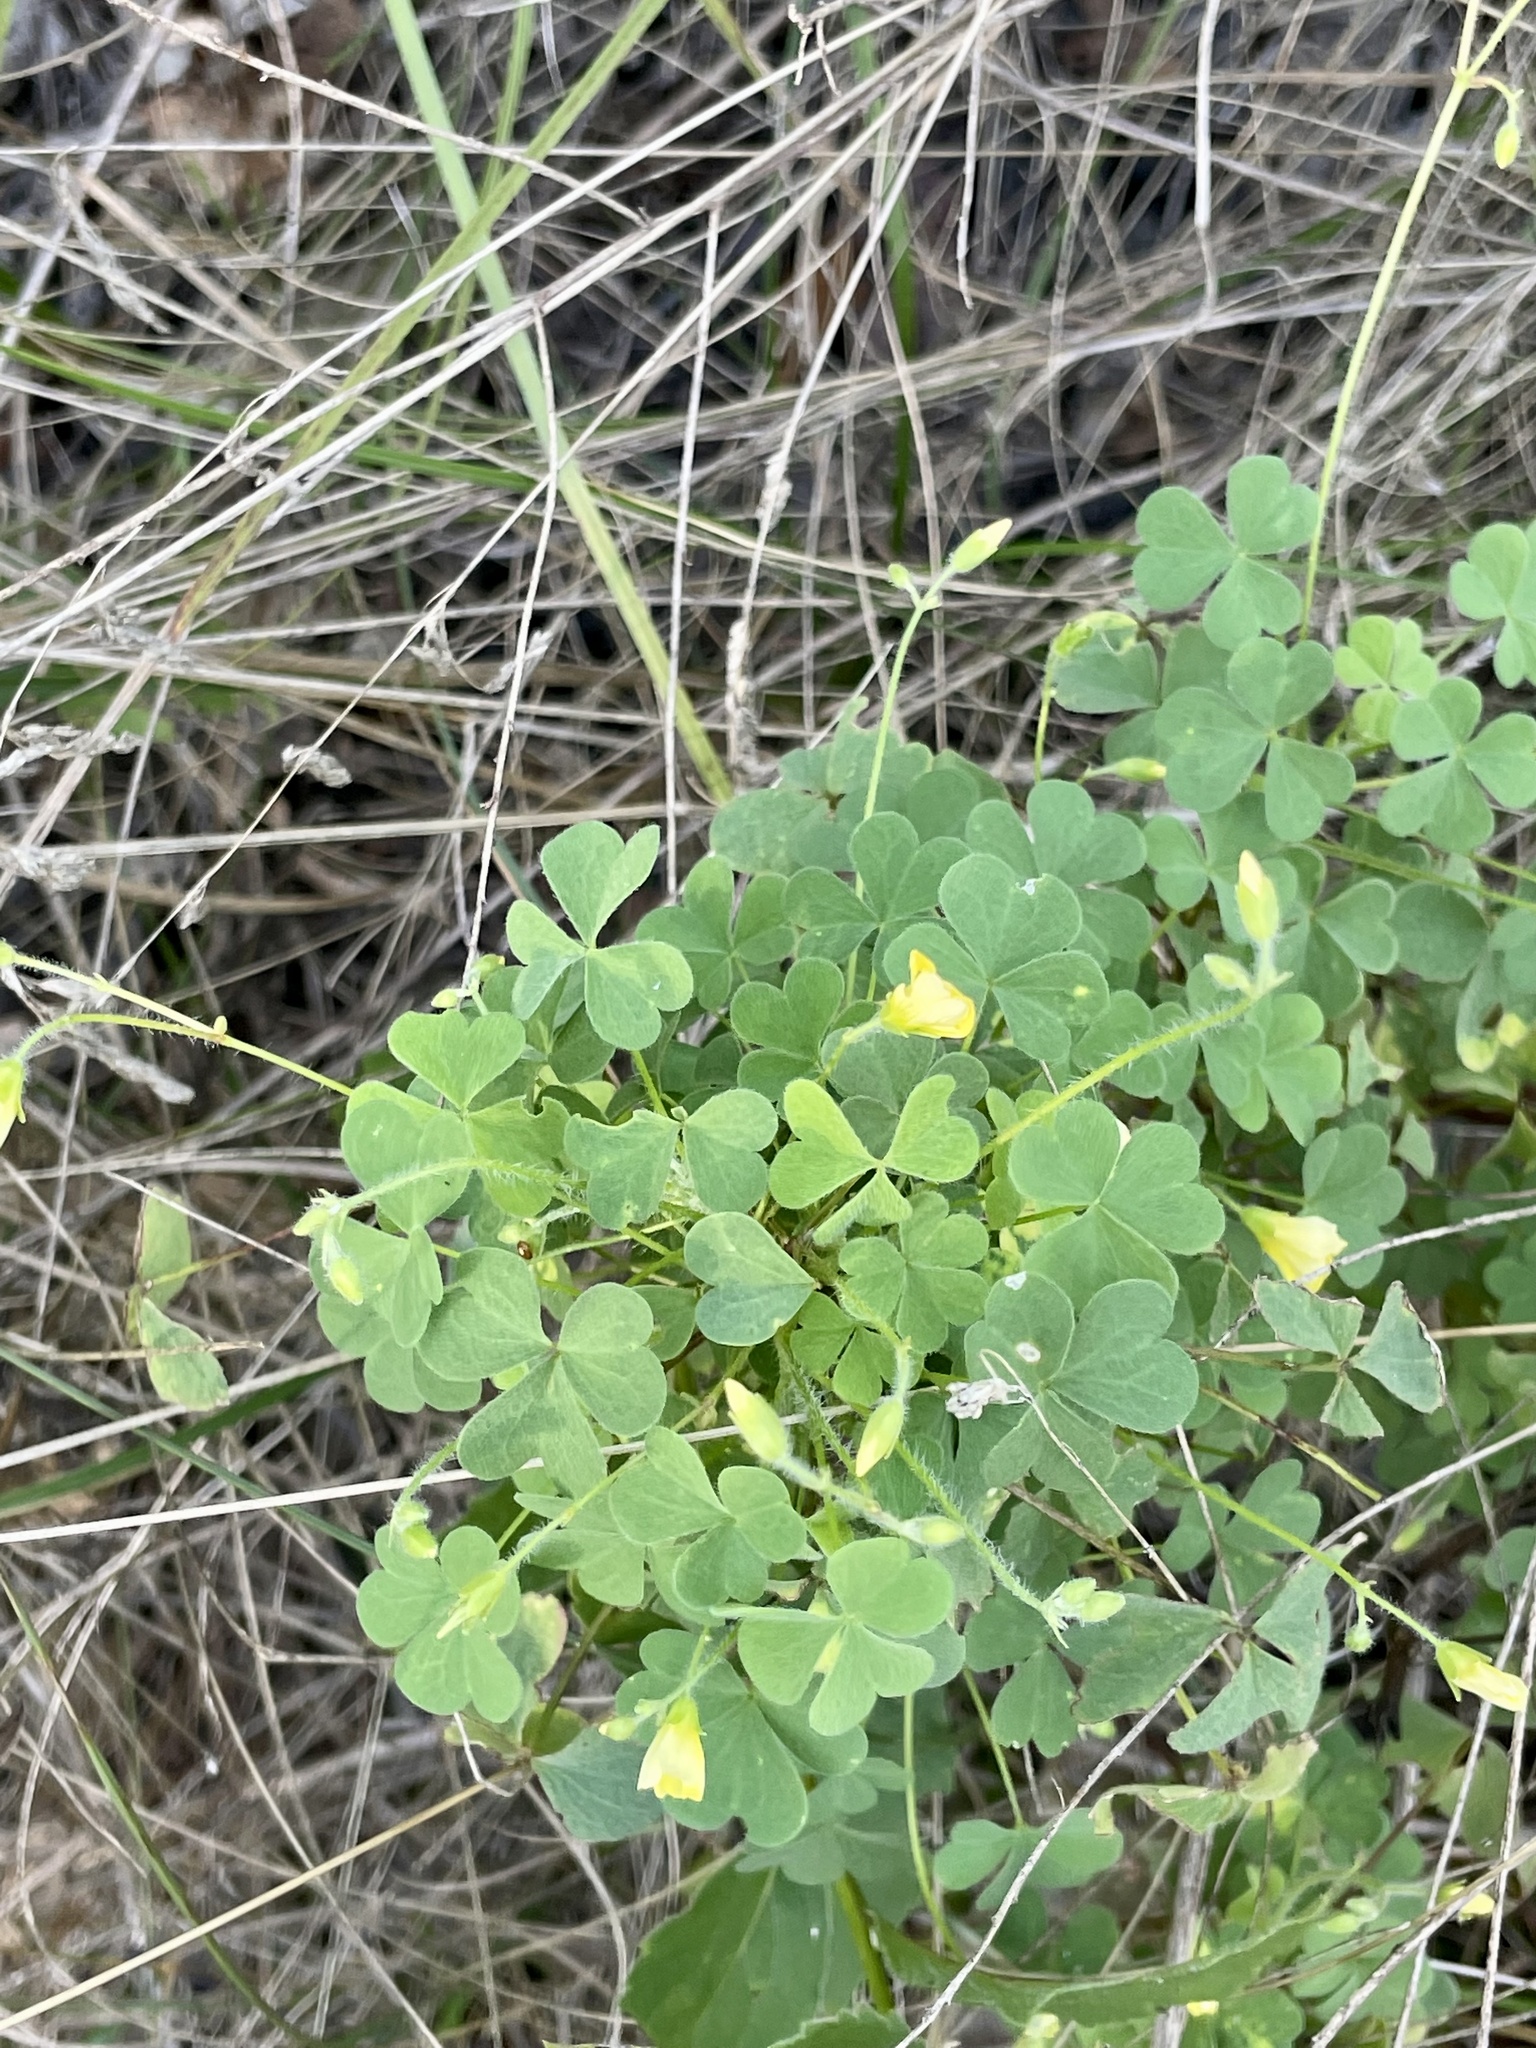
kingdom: Plantae
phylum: Tracheophyta
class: Magnoliopsida
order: Oxalidales
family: Oxalidaceae
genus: Oxalis
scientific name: Oxalis stricta
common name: Upright yellow-sorrel
